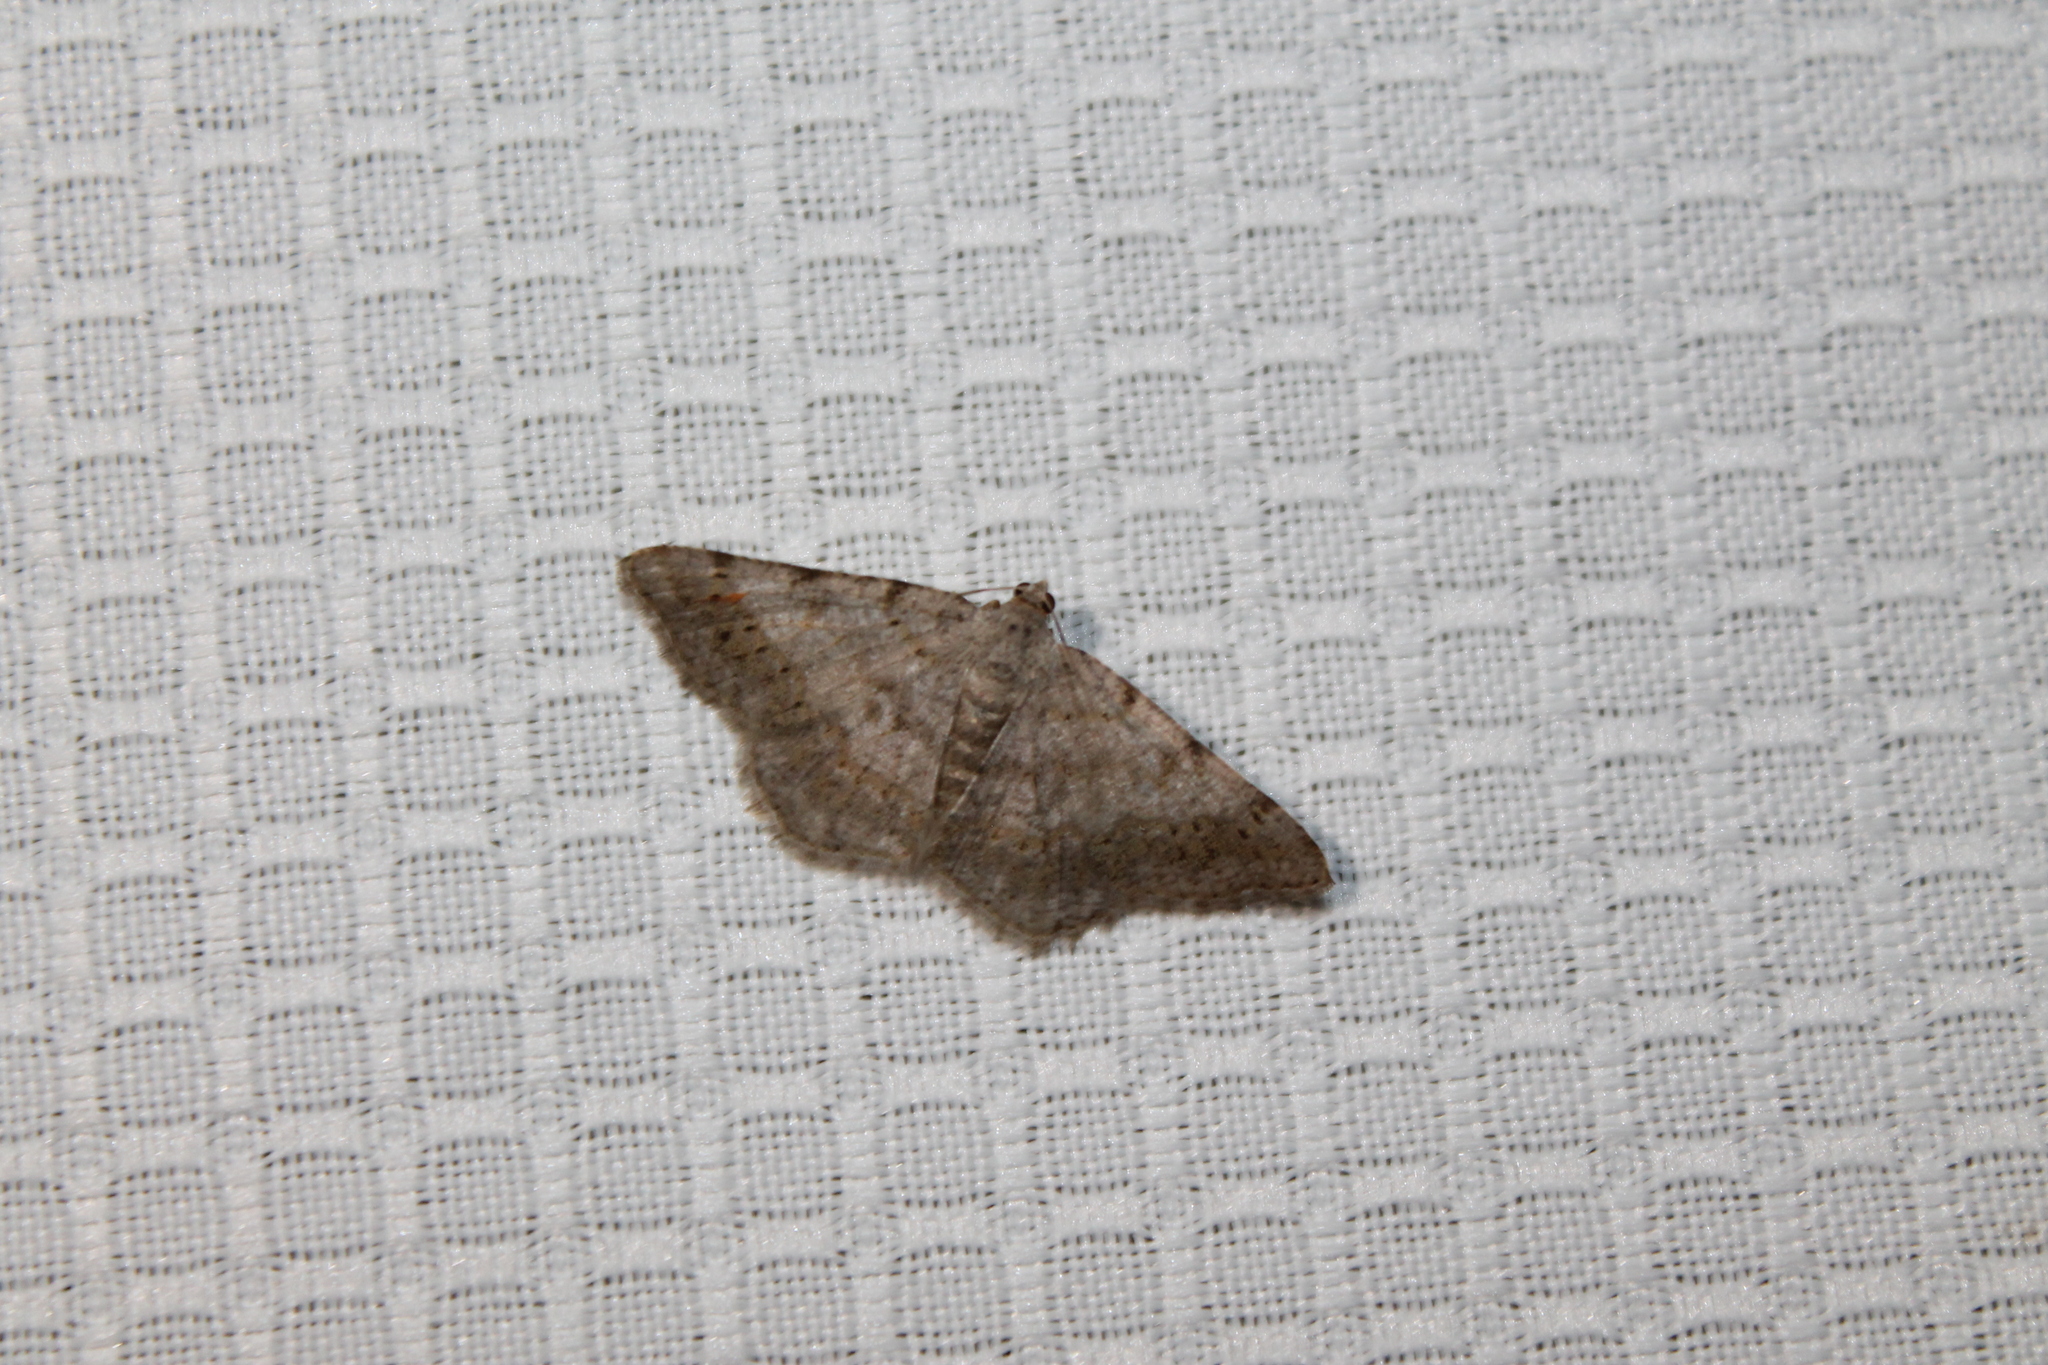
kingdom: Animalia
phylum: Arthropoda
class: Insecta
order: Lepidoptera
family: Geometridae
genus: Digrammia
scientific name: Digrammia ocellinata
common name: Faint-spotted angle
